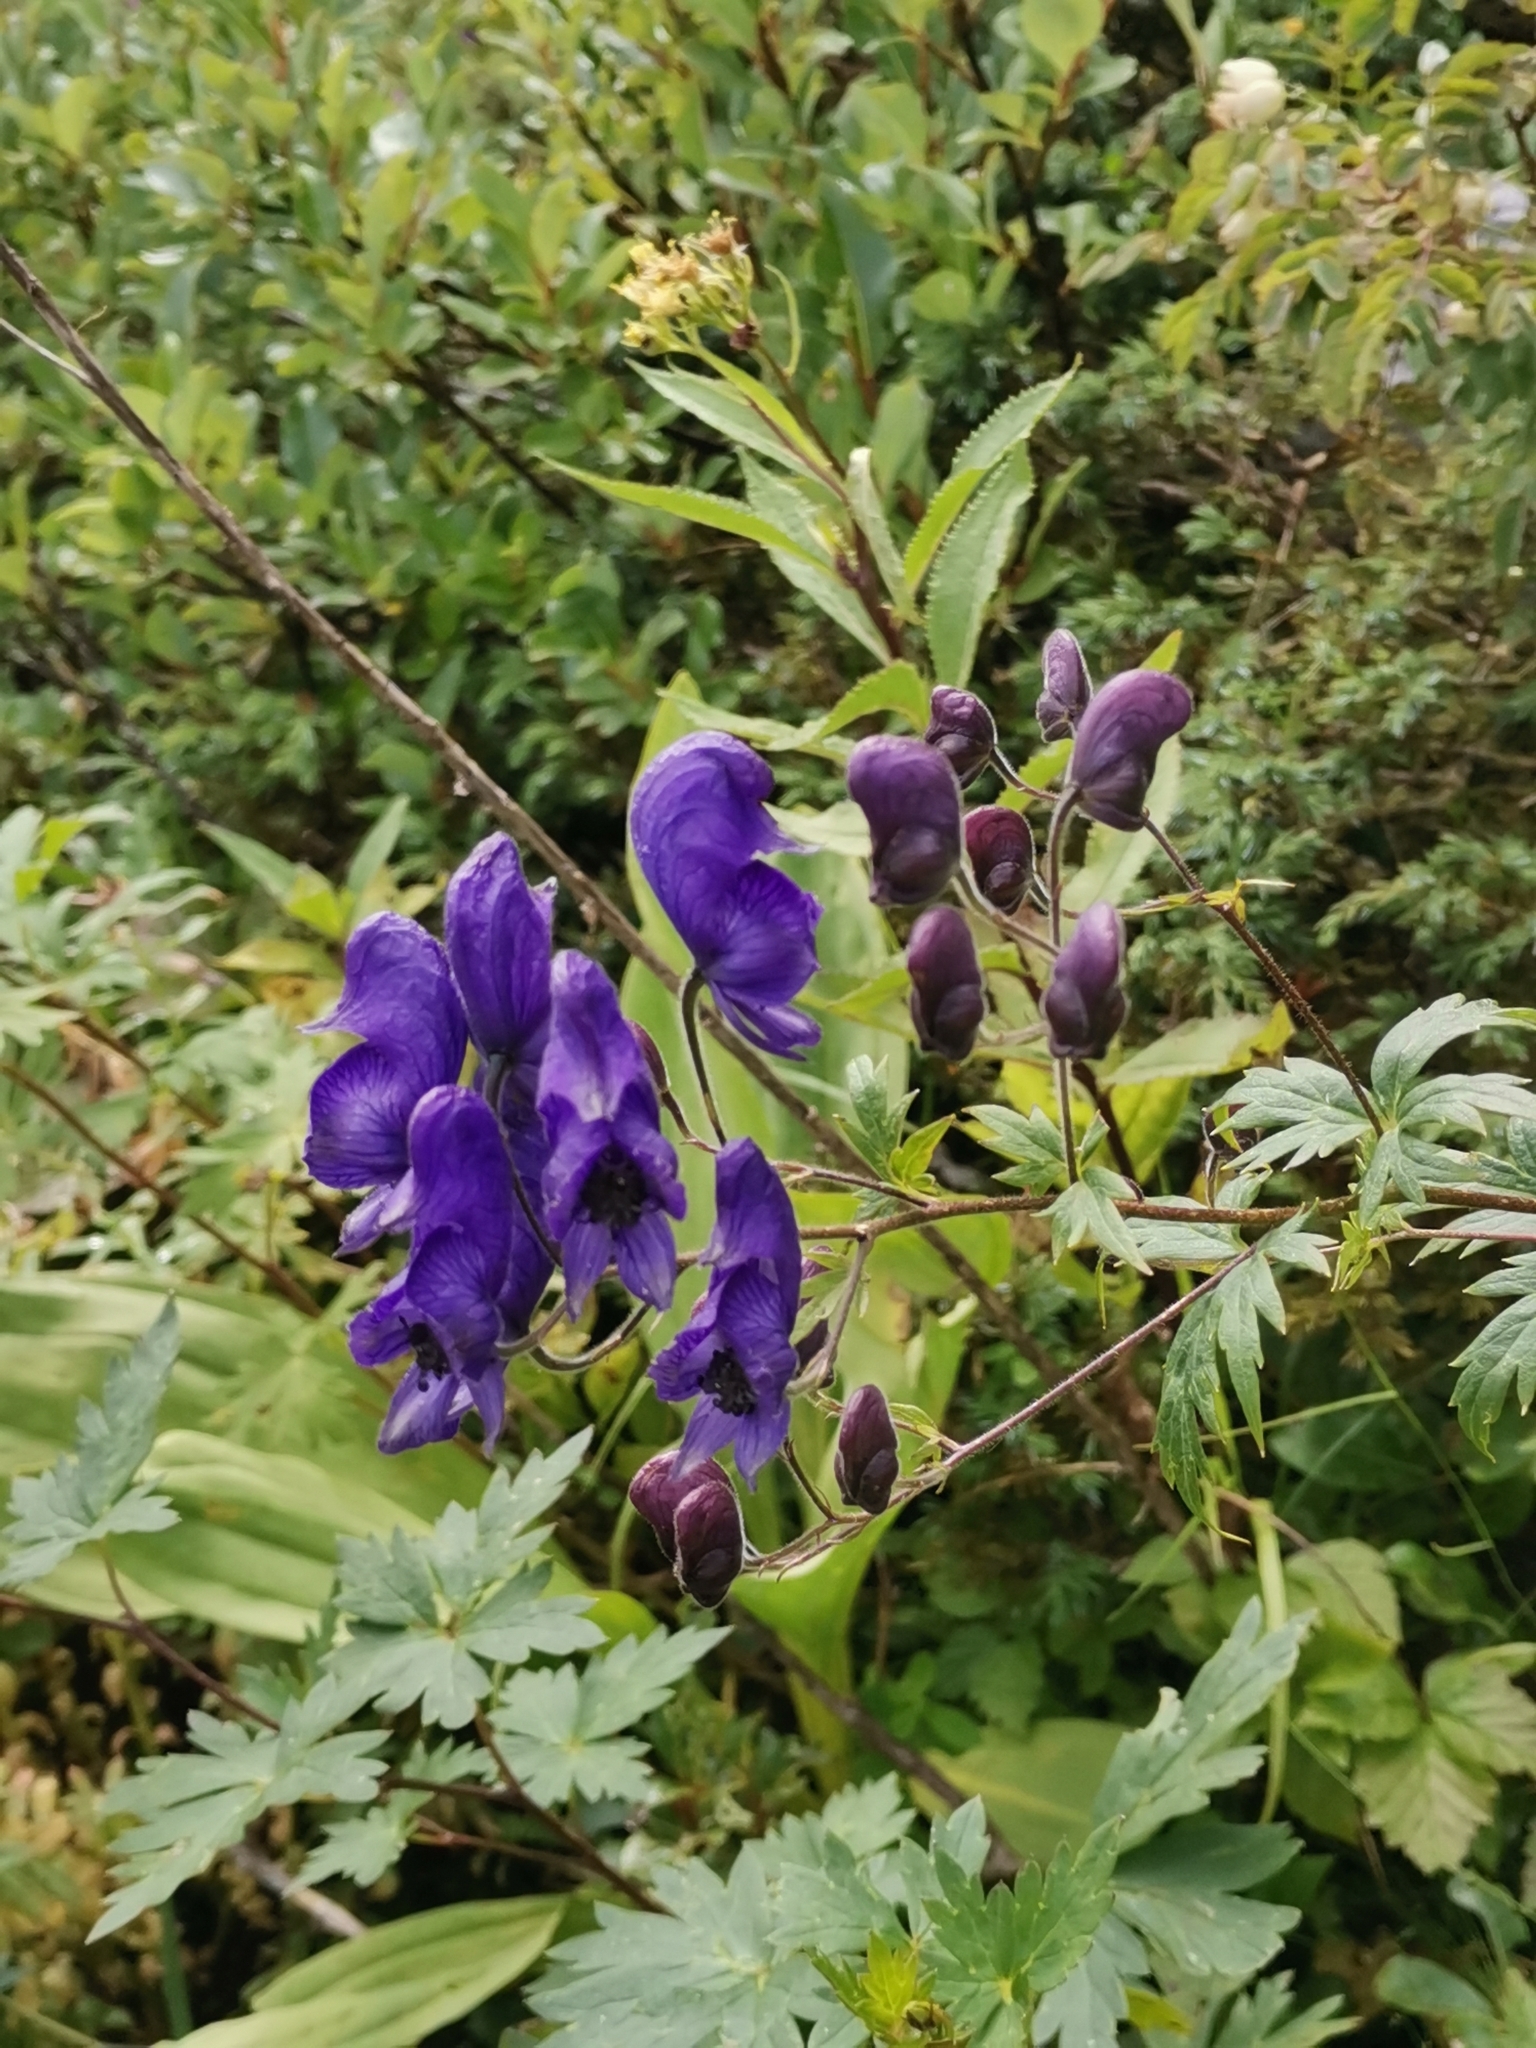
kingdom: Plantae
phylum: Tracheophyta
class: Magnoliopsida
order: Ranunculales
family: Ranunculaceae
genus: Aconitum
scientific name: Aconitum degenii
